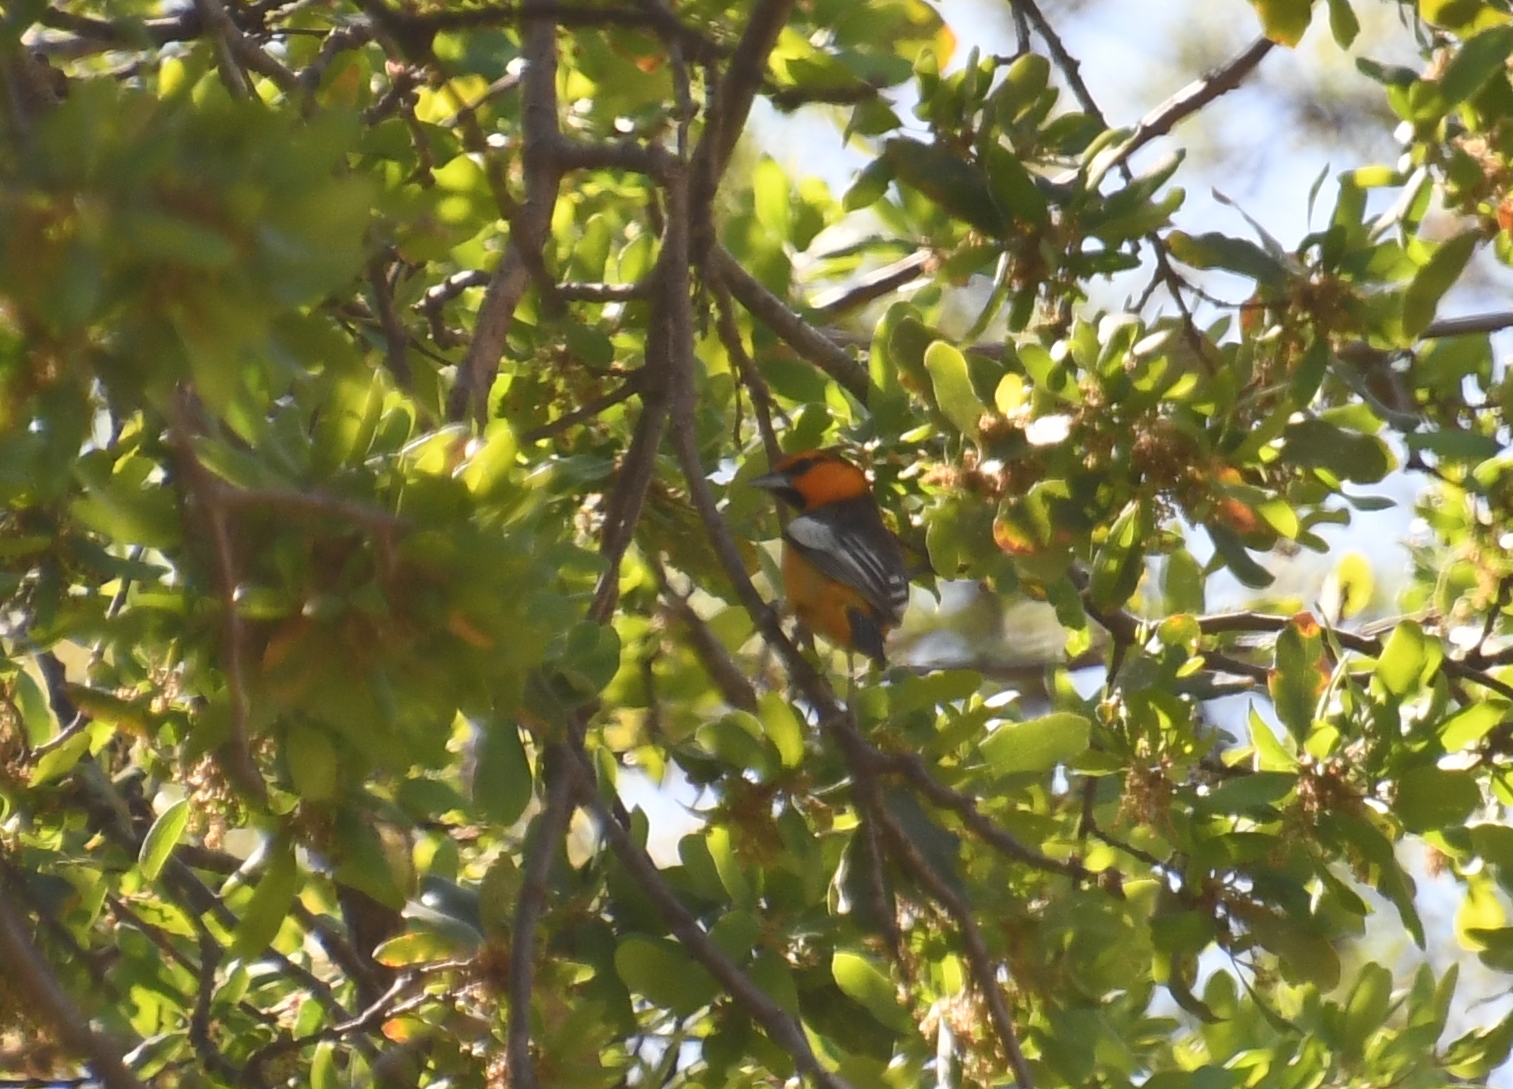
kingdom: Animalia
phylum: Chordata
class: Aves
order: Passeriformes
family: Icteridae
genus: Icterus
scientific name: Icterus bullockii
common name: Bullock's oriole
